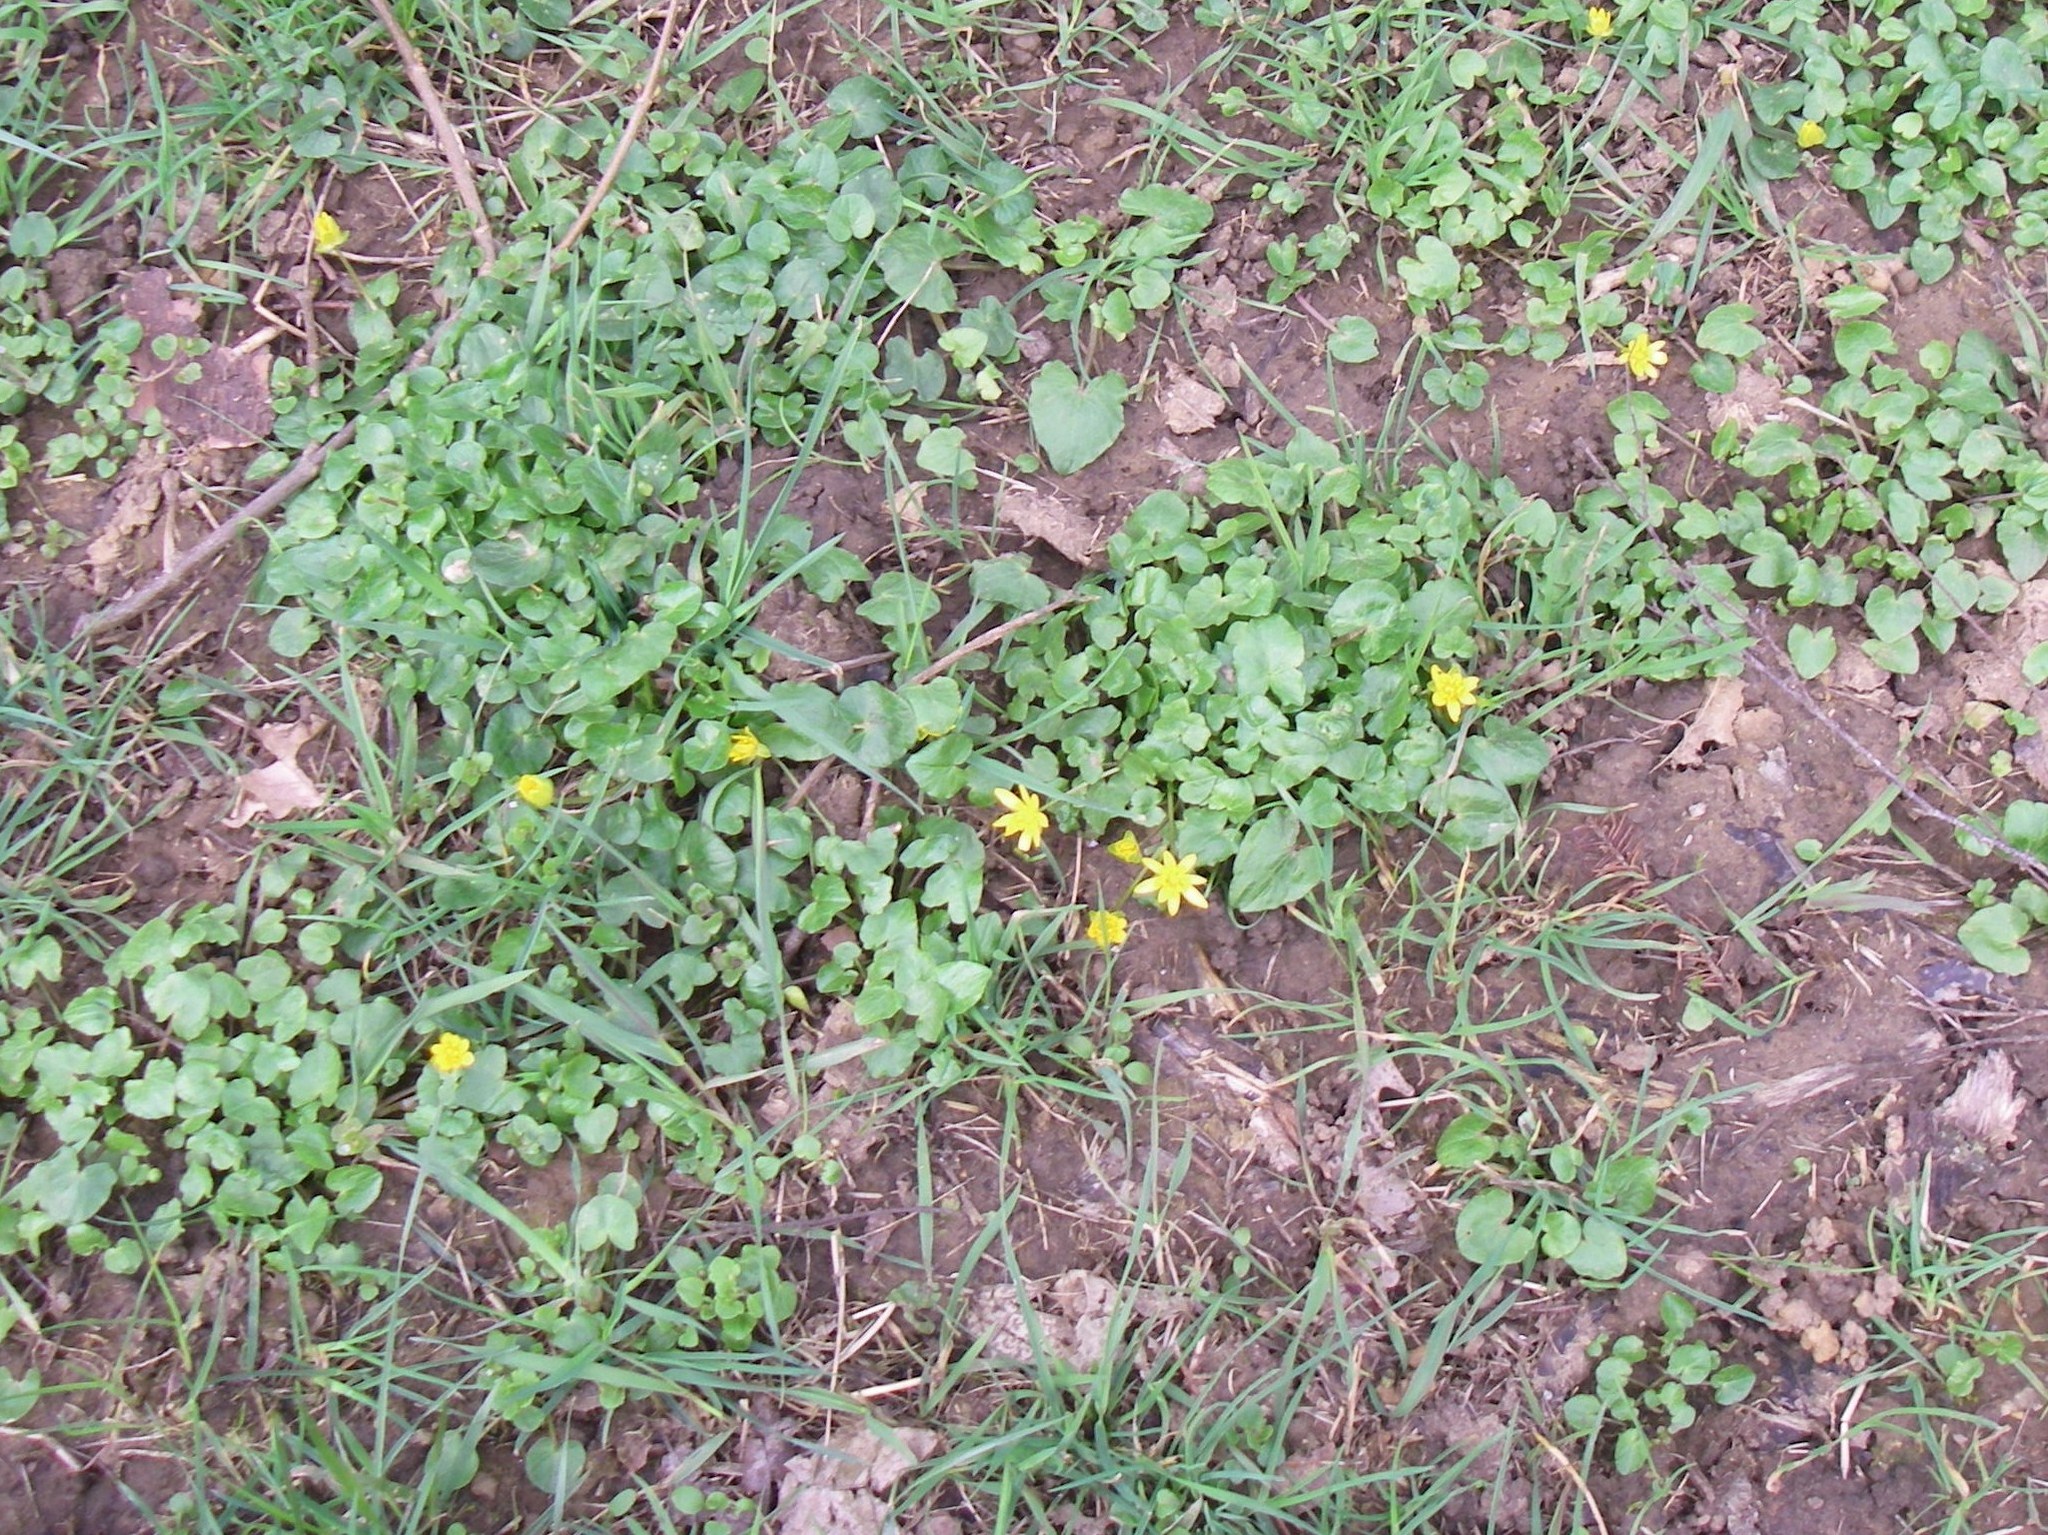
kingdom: Plantae
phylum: Tracheophyta
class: Magnoliopsida
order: Ranunculales
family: Ranunculaceae
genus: Ficaria
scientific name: Ficaria verna
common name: Lesser celandine
